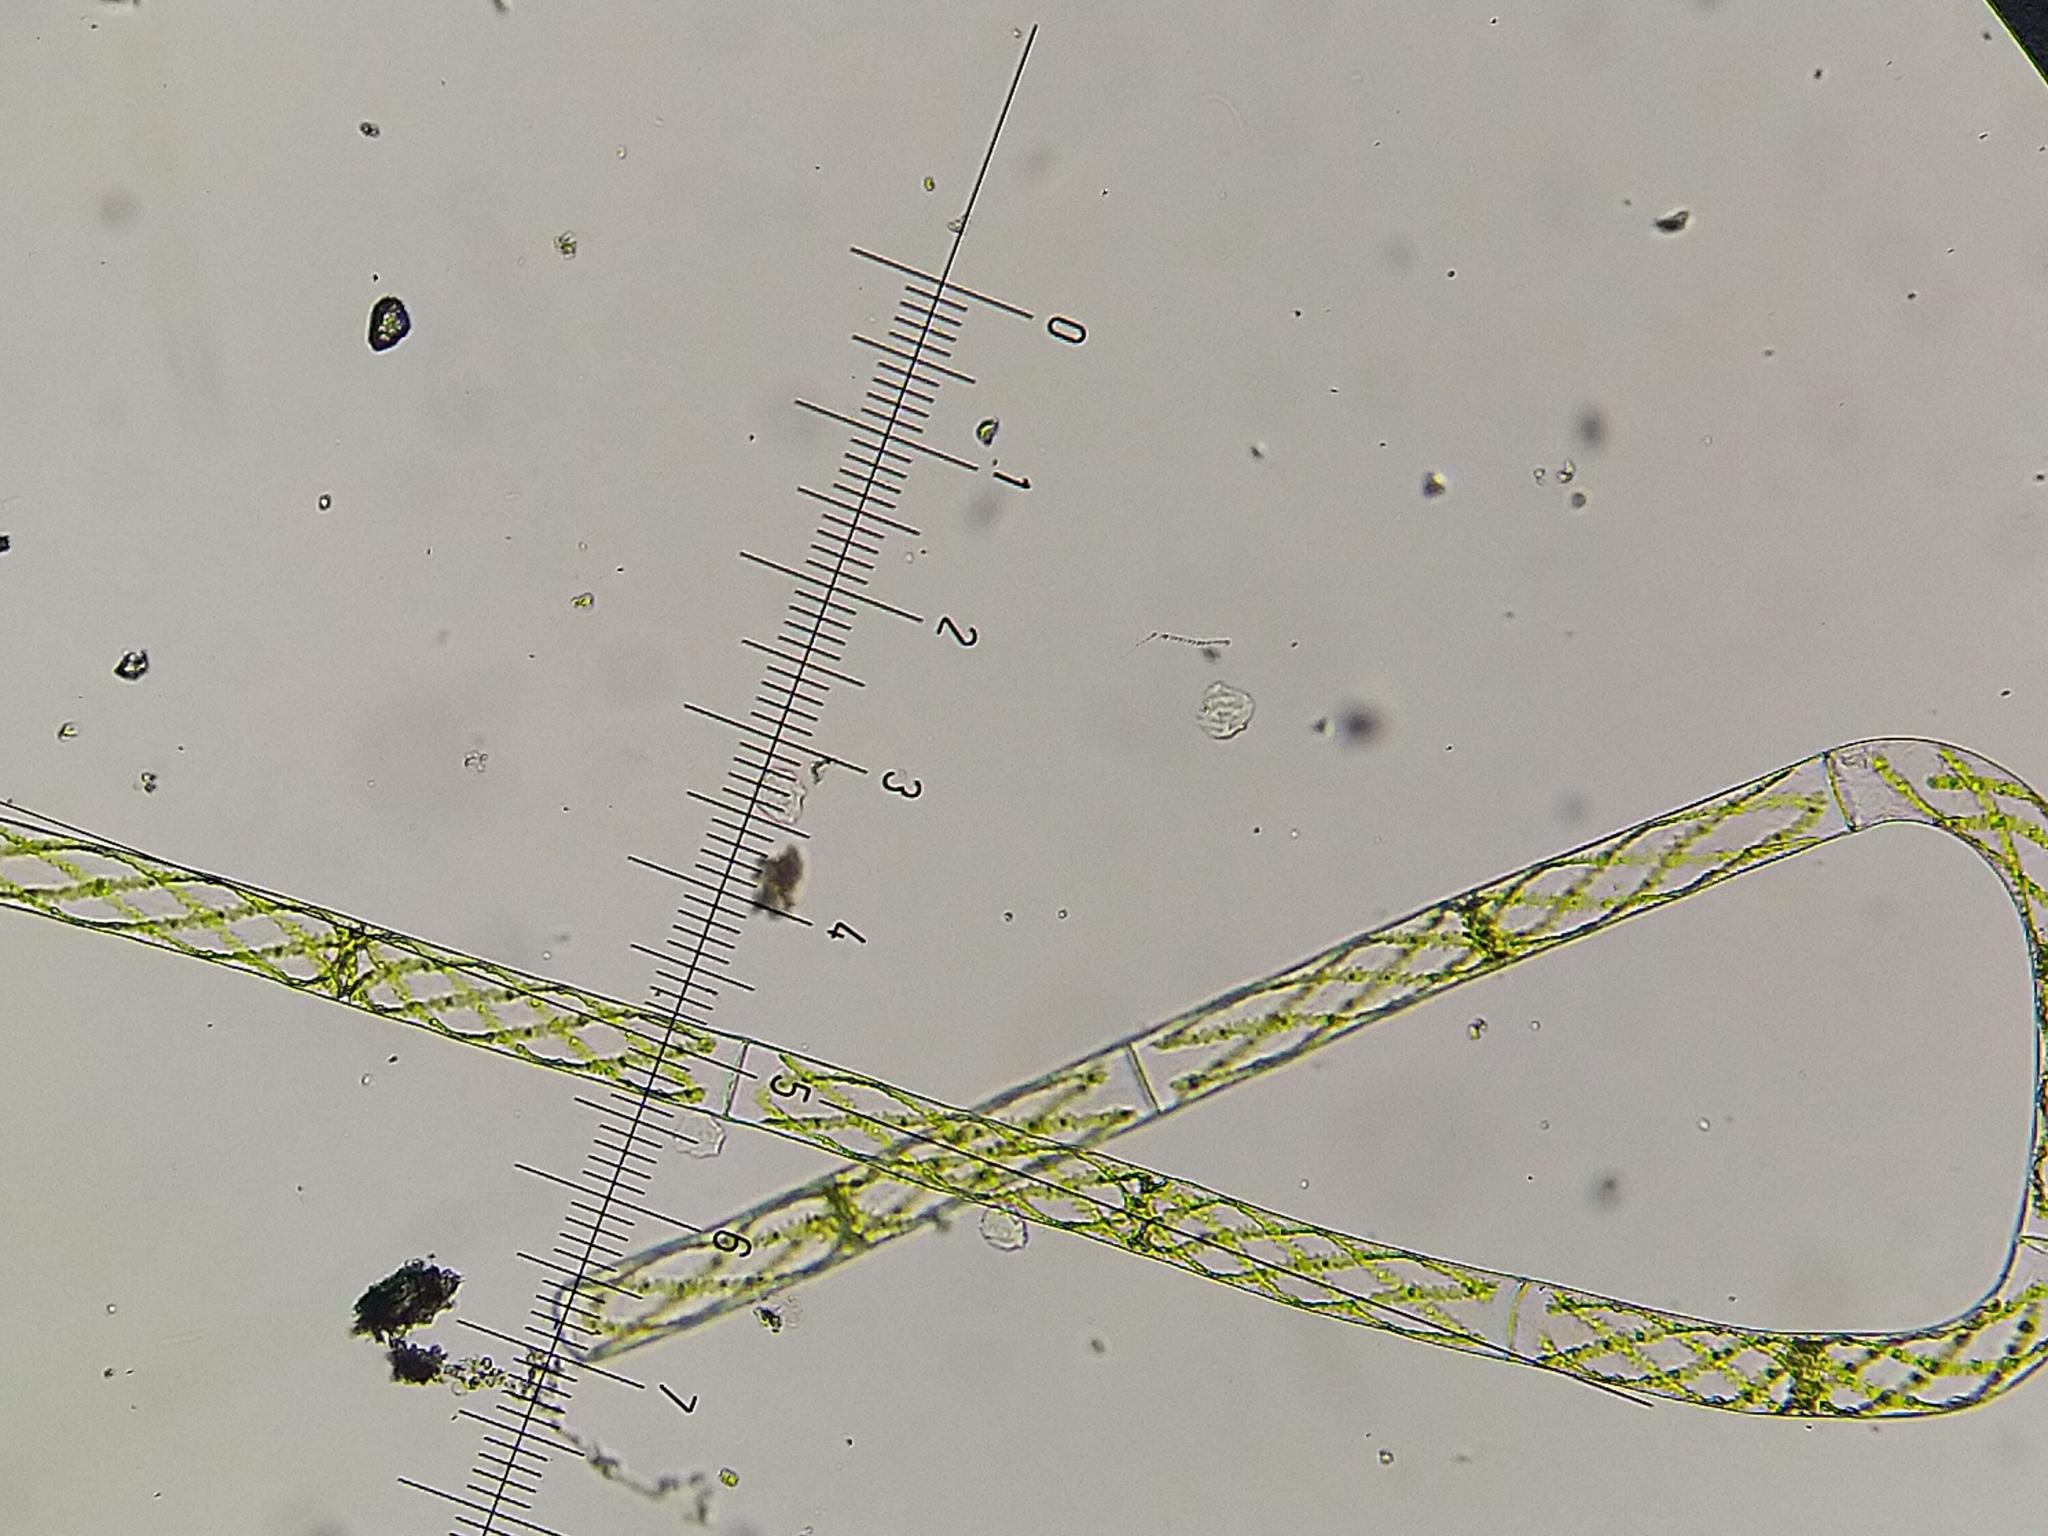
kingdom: Plantae
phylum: Charophyta
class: Zygnematophyceae
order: Zygnematales
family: Zygnemataceae
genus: Spirogyra
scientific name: Spirogyra
